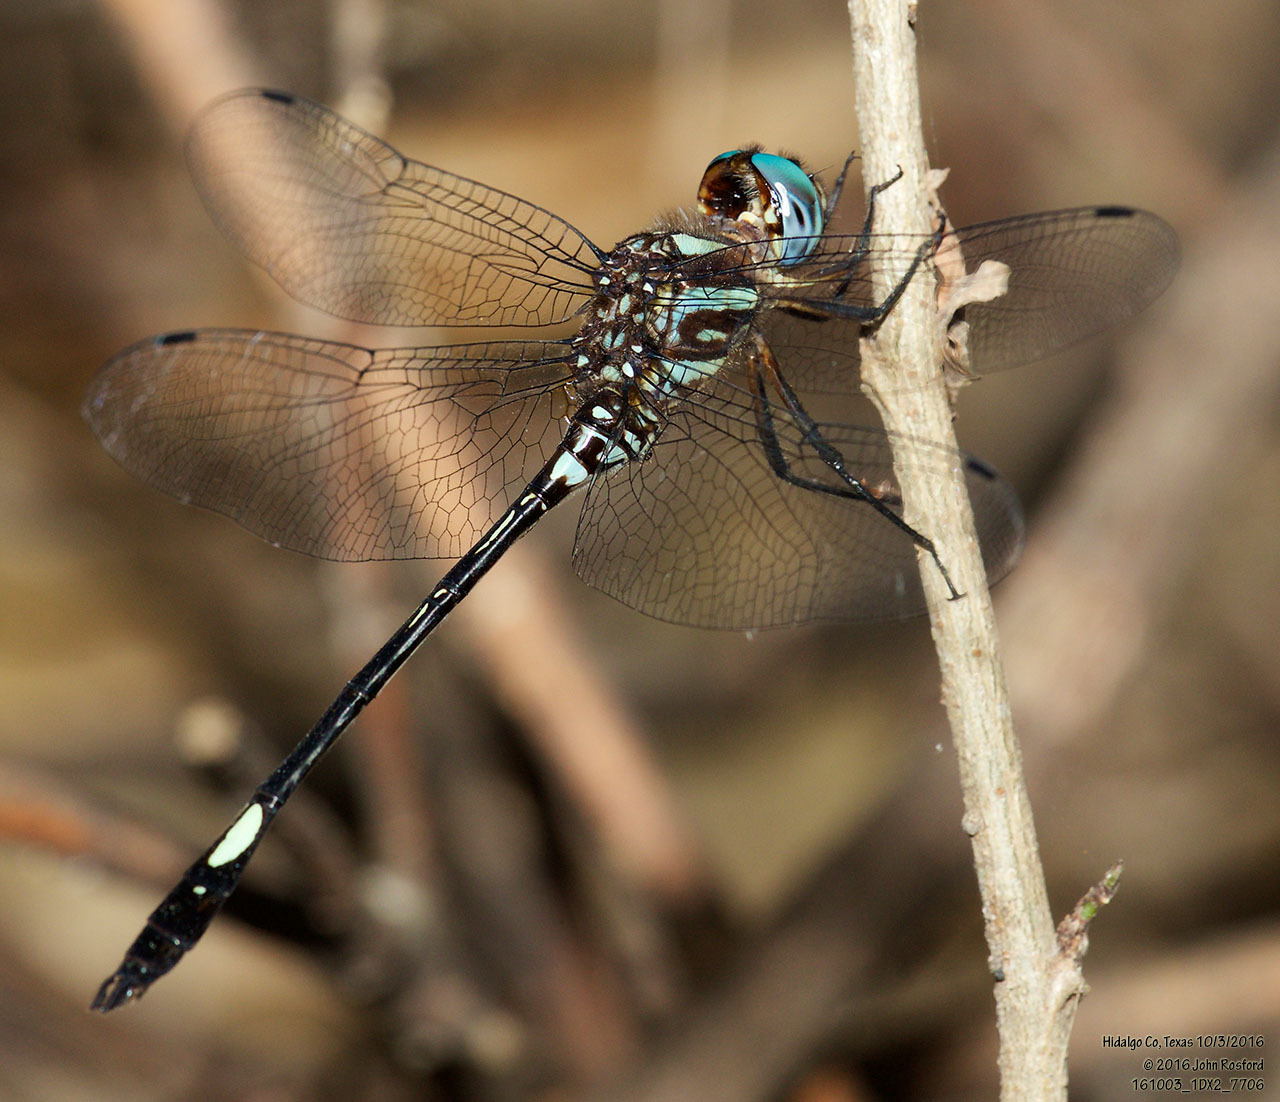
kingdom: Animalia
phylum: Arthropoda
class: Insecta
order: Odonata
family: Libellulidae
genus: Brechmorhoga
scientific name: Brechmorhoga mendax
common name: Pale-faced clubskimmer
